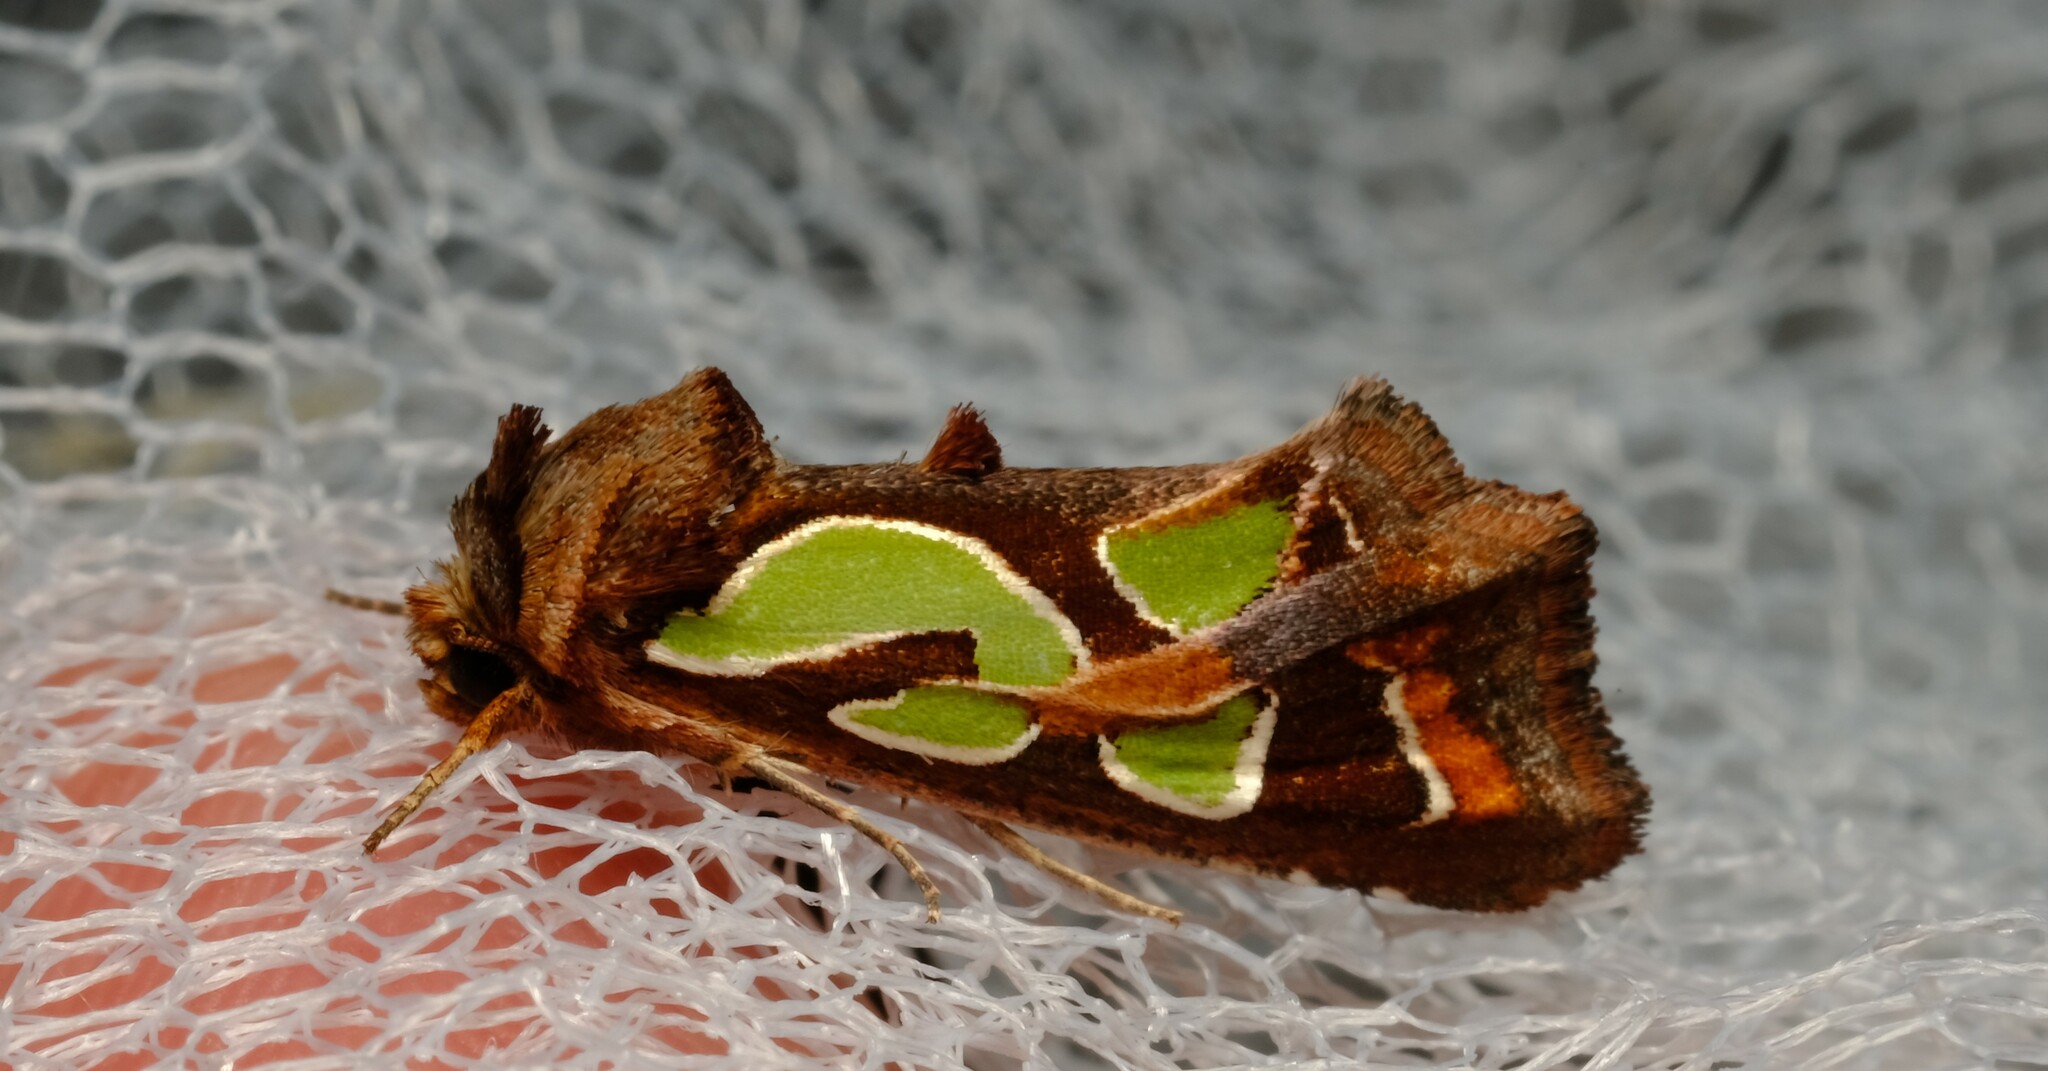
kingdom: Animalia
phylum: Arthropoda
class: Insecta
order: Lepidoptera
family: Noctuidae
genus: Cosmodes
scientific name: Cosmodes elegans
